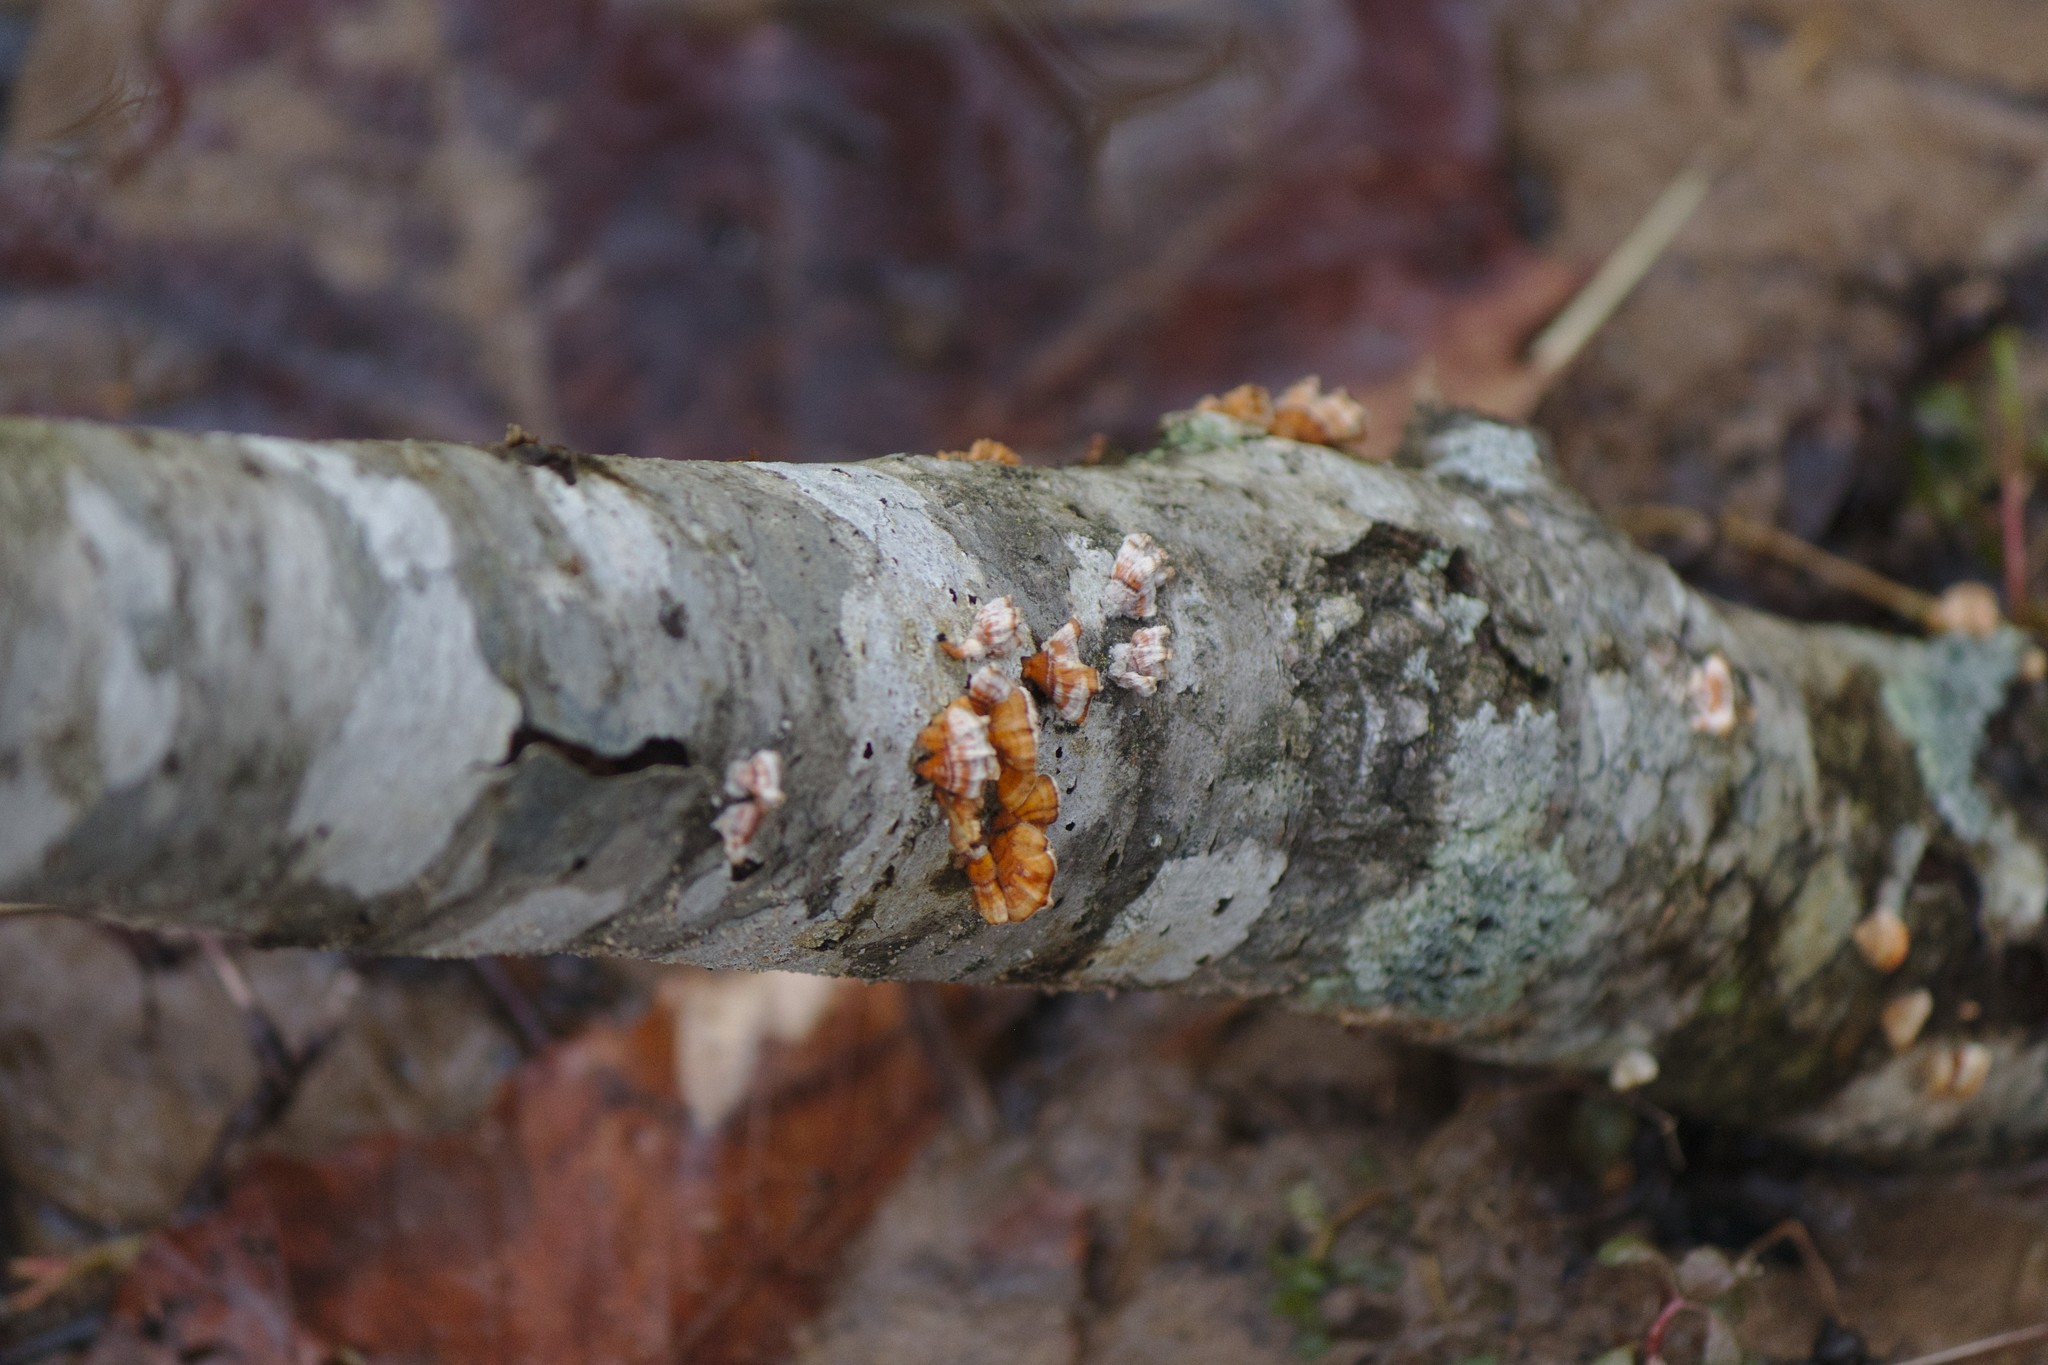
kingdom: Fungi
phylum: Basidiomycota
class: Agaricomycetes
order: Russulales
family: Stereaceae
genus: Stereum
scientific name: Stereum complicatum
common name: Crowded parchment
